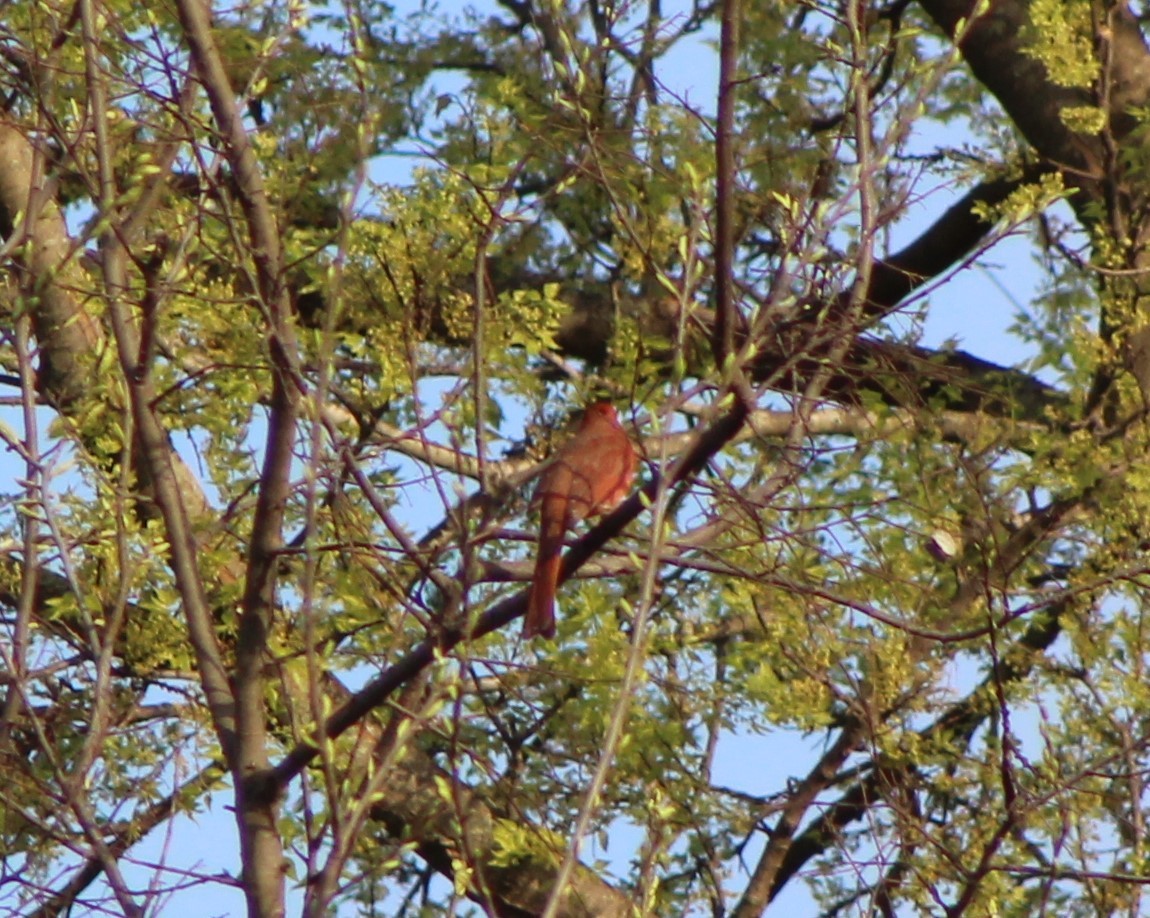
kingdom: Animalia
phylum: Chordata
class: Aves
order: Passeriformes
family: Cardinalidae
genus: Cardinalis
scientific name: Cardinalis cardinalis
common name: Northern cardinal
